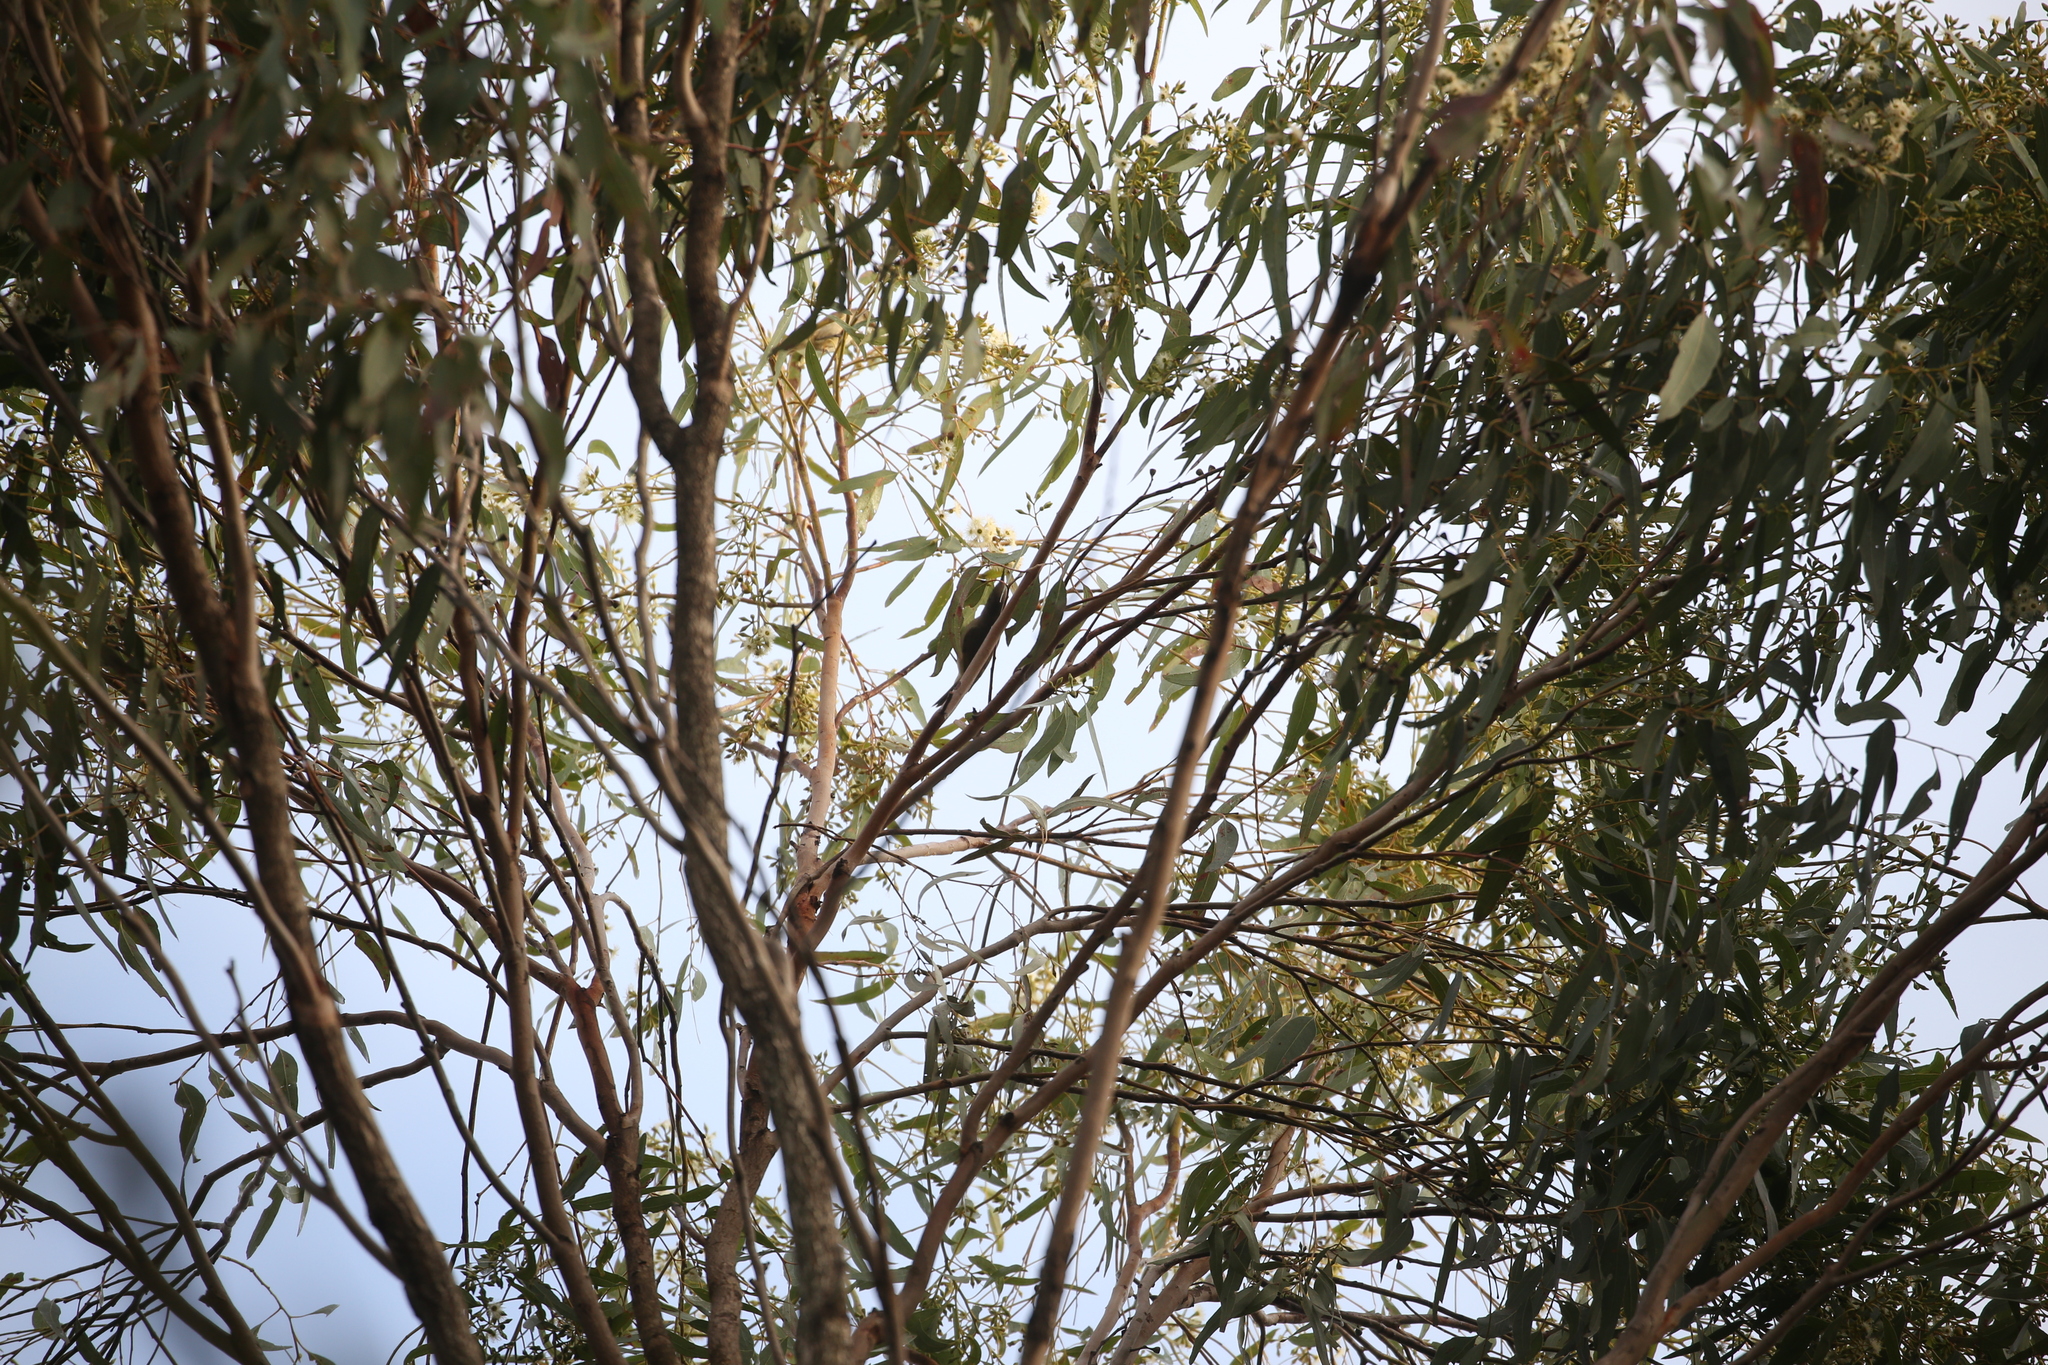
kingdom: Animalia
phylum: Chordata
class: Aves
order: Passeriformes
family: Meliphagidae
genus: Lichmera
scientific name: Lichmera indistincta
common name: Brown honeyeater
